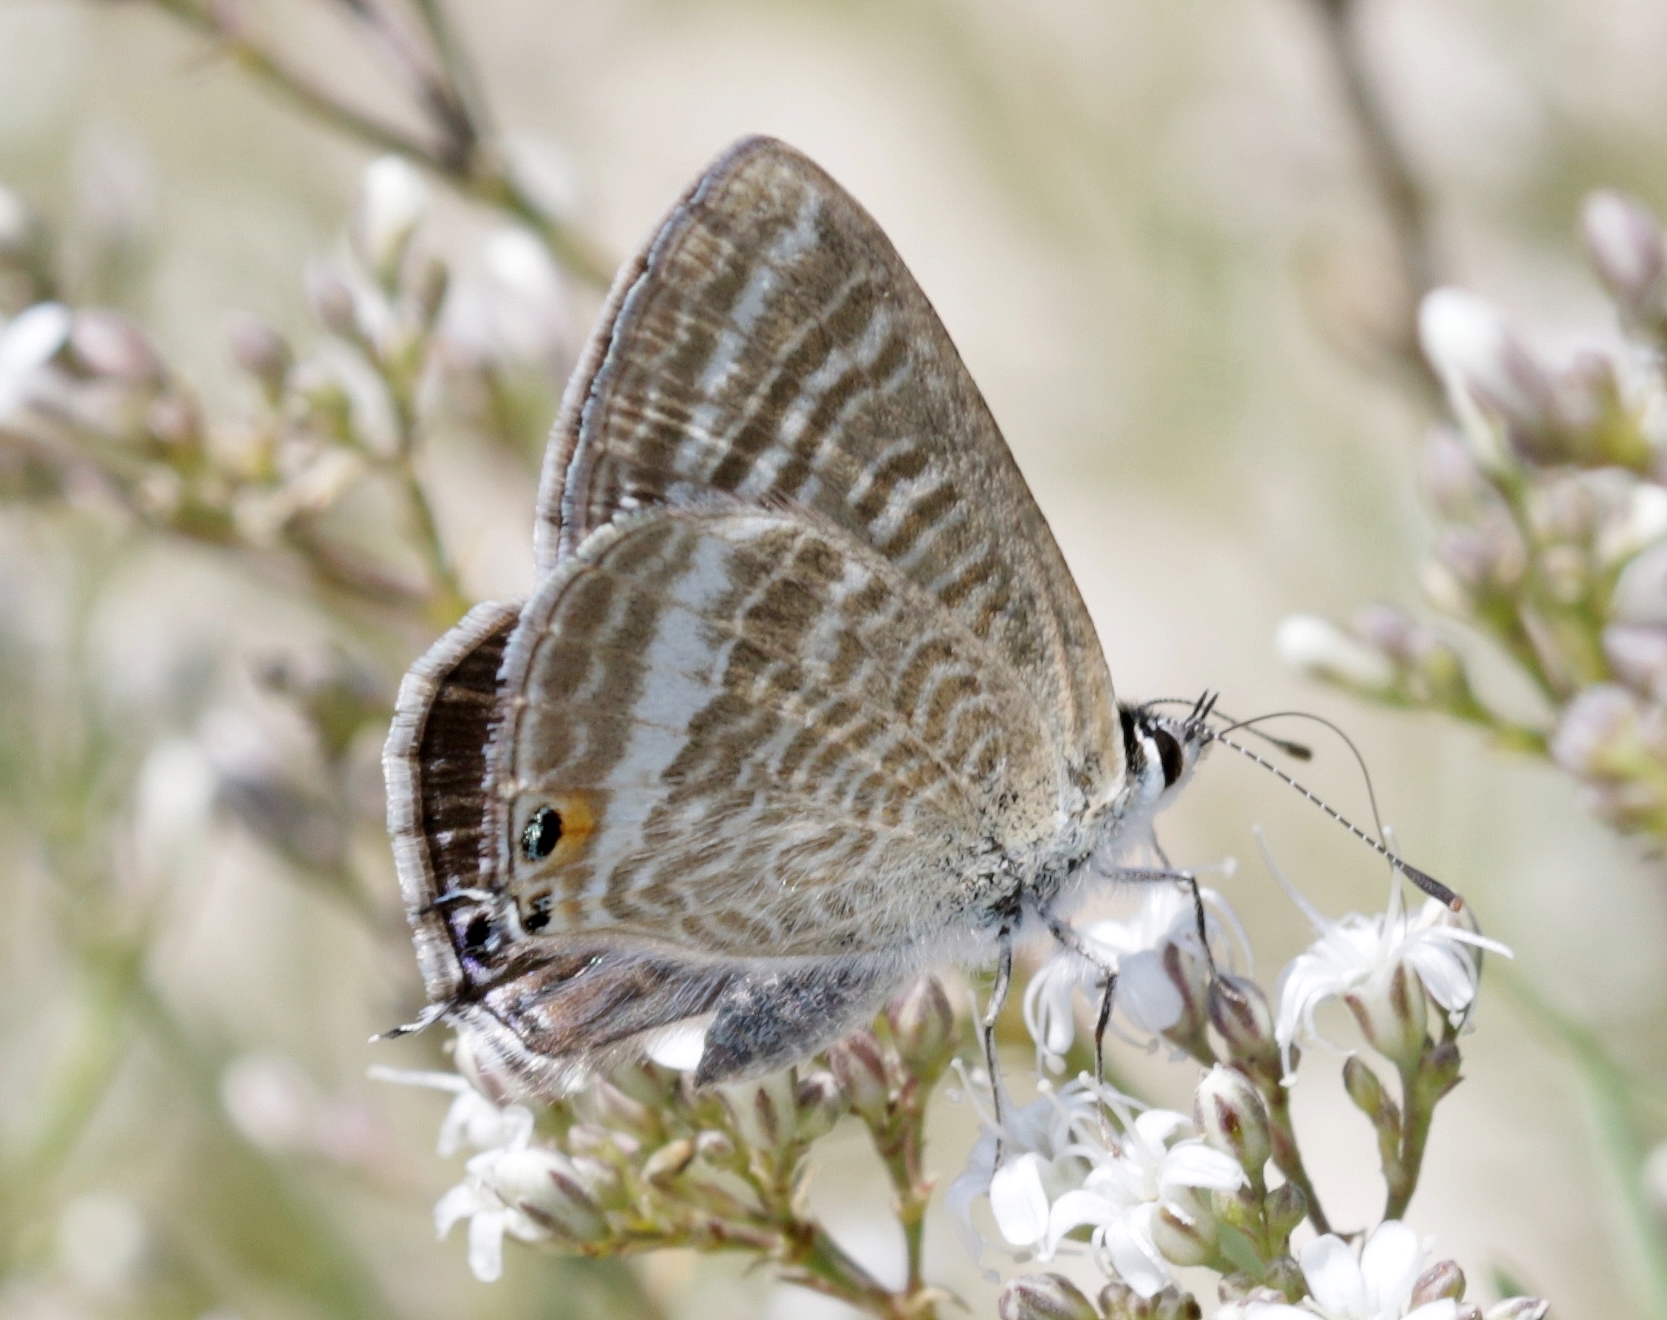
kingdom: Animalia
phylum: Arthropoda
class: Insecta
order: Lepidoptera
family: Lycaenidae
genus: Lampides
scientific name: Lampides boeticus
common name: Long-tailed blue
